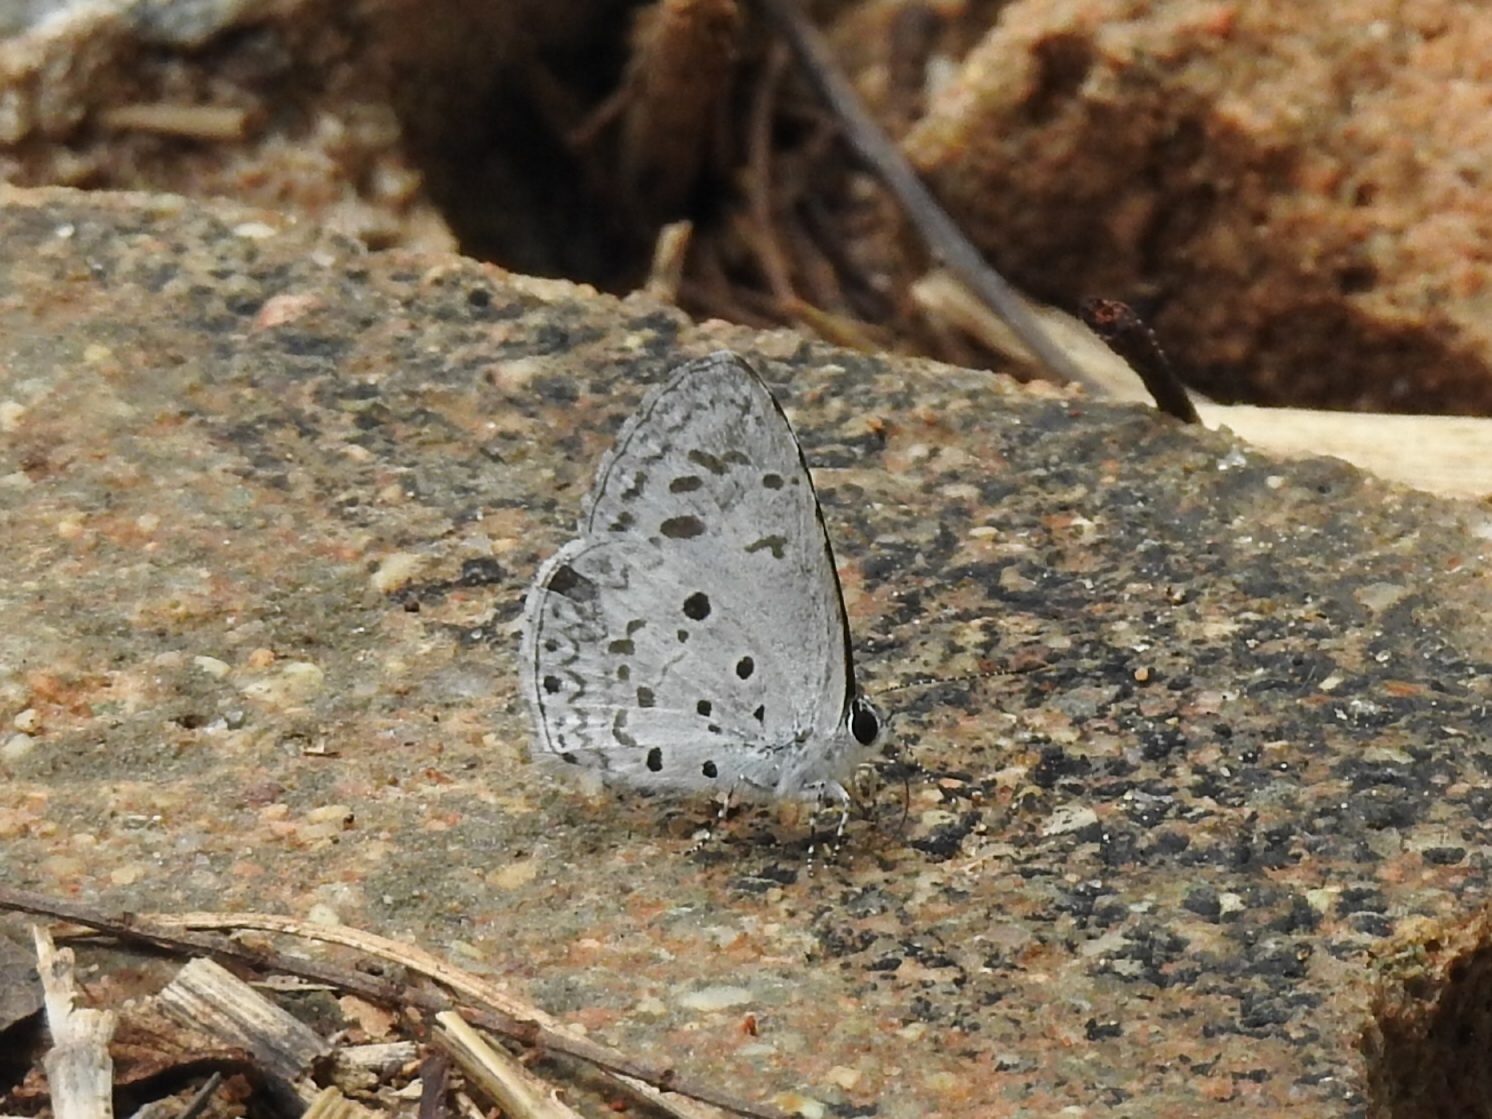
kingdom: Animalia
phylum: Arthropoda
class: Insecta
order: Lepidoptera
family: Lycaenidae
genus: Acytolepis
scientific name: Acytolepis puspa
